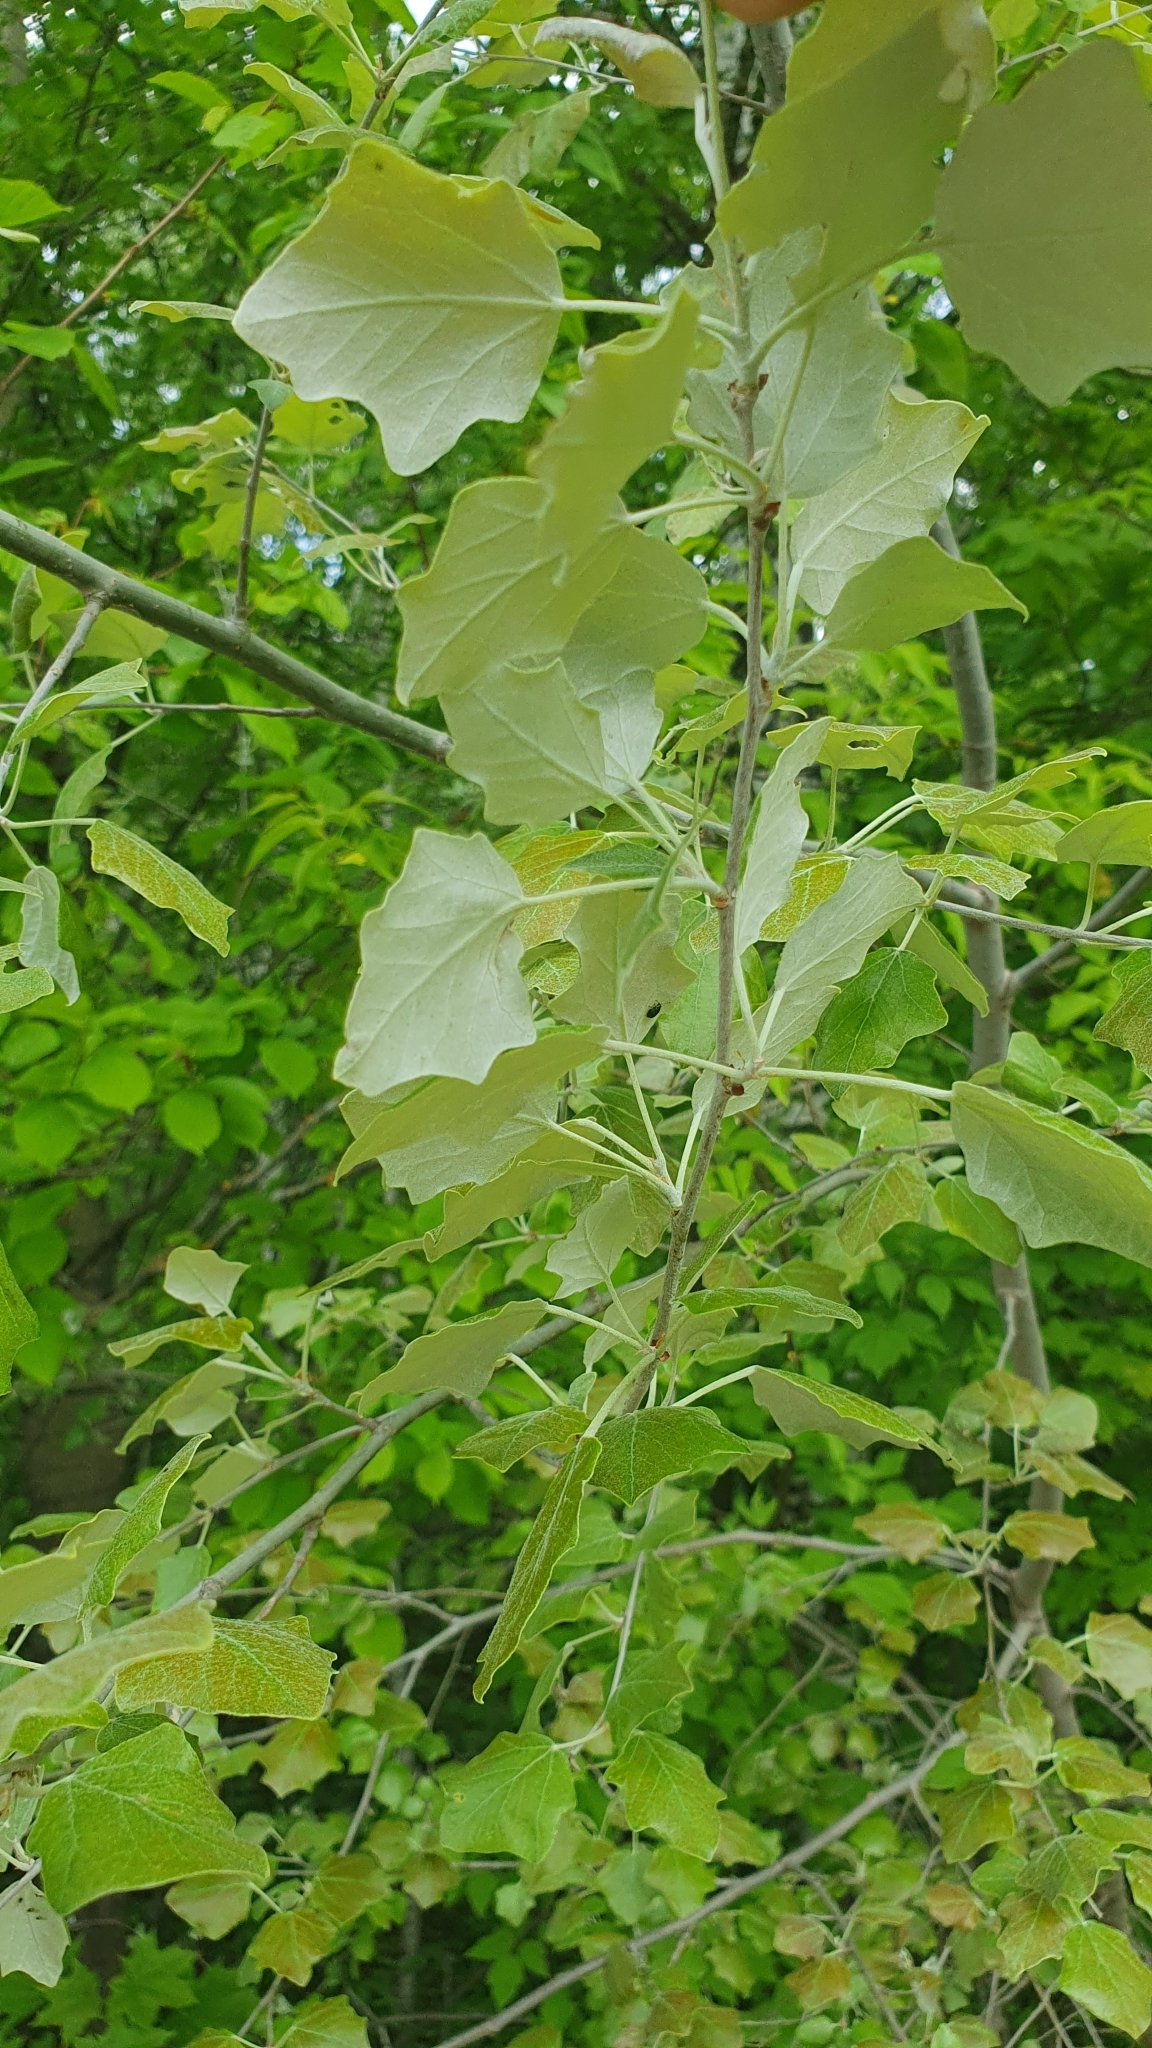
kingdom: Plantae
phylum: Tracheophyta
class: Magnoliopsida
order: Malpighiales
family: Salicaceae
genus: Populus
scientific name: Populus alba
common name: White poplar
